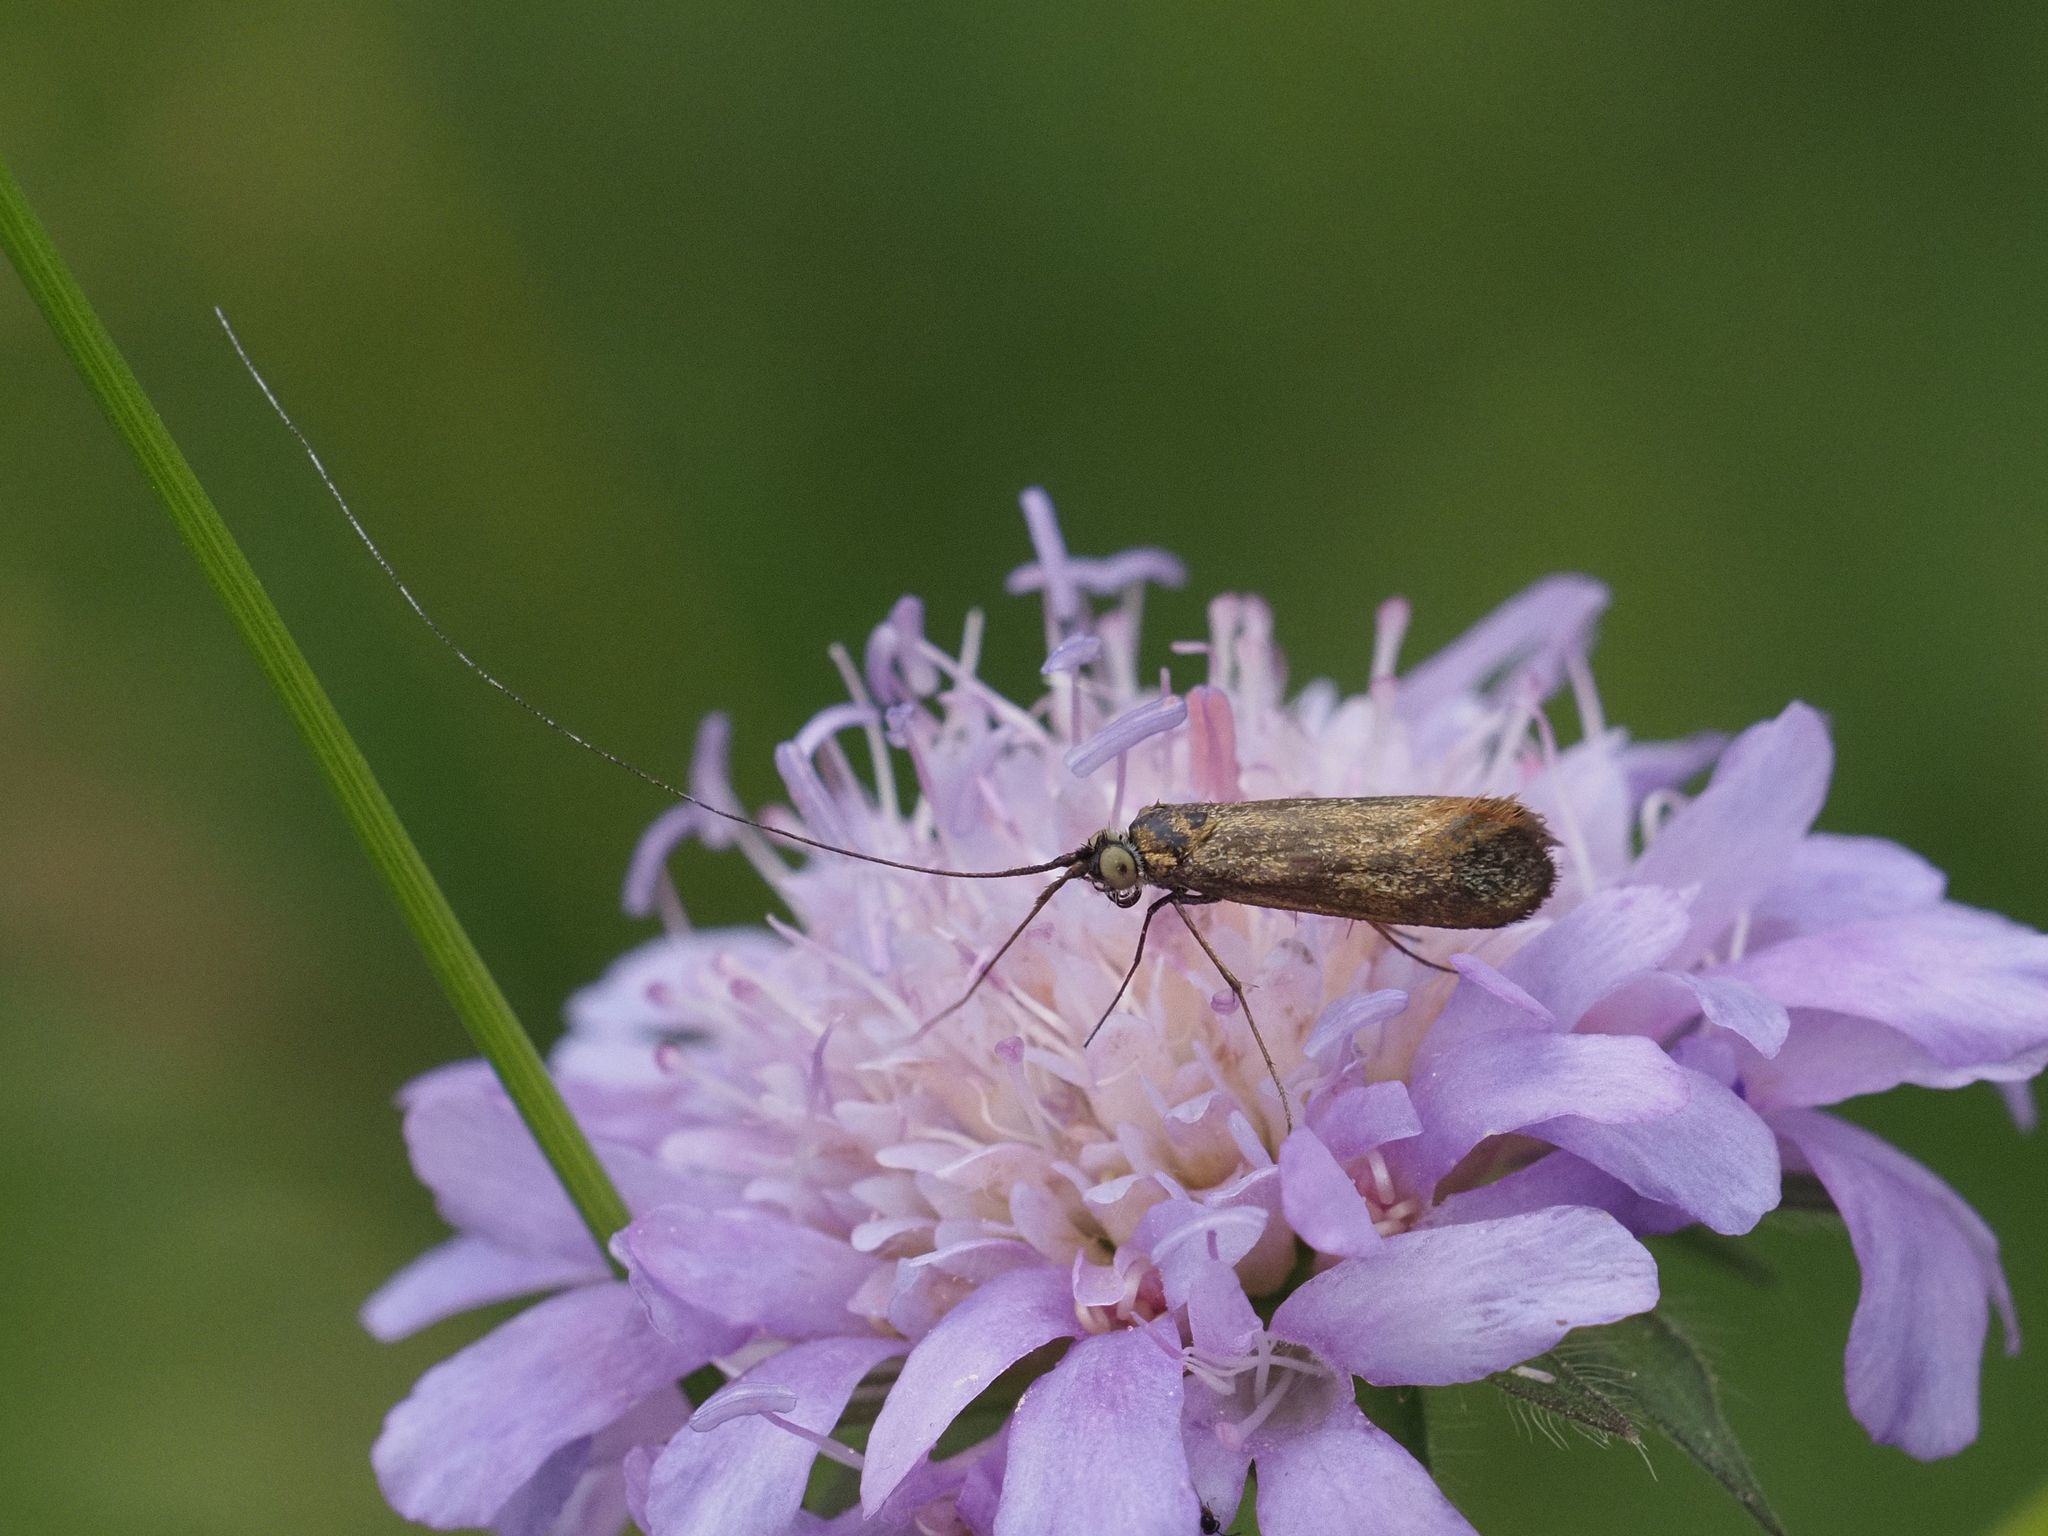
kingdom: Animalia
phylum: Arthropoda
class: Insecta
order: Lepidoptera
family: Adelidae
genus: Nemophora
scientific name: Nemophora metallica
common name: Brassy long-horn
